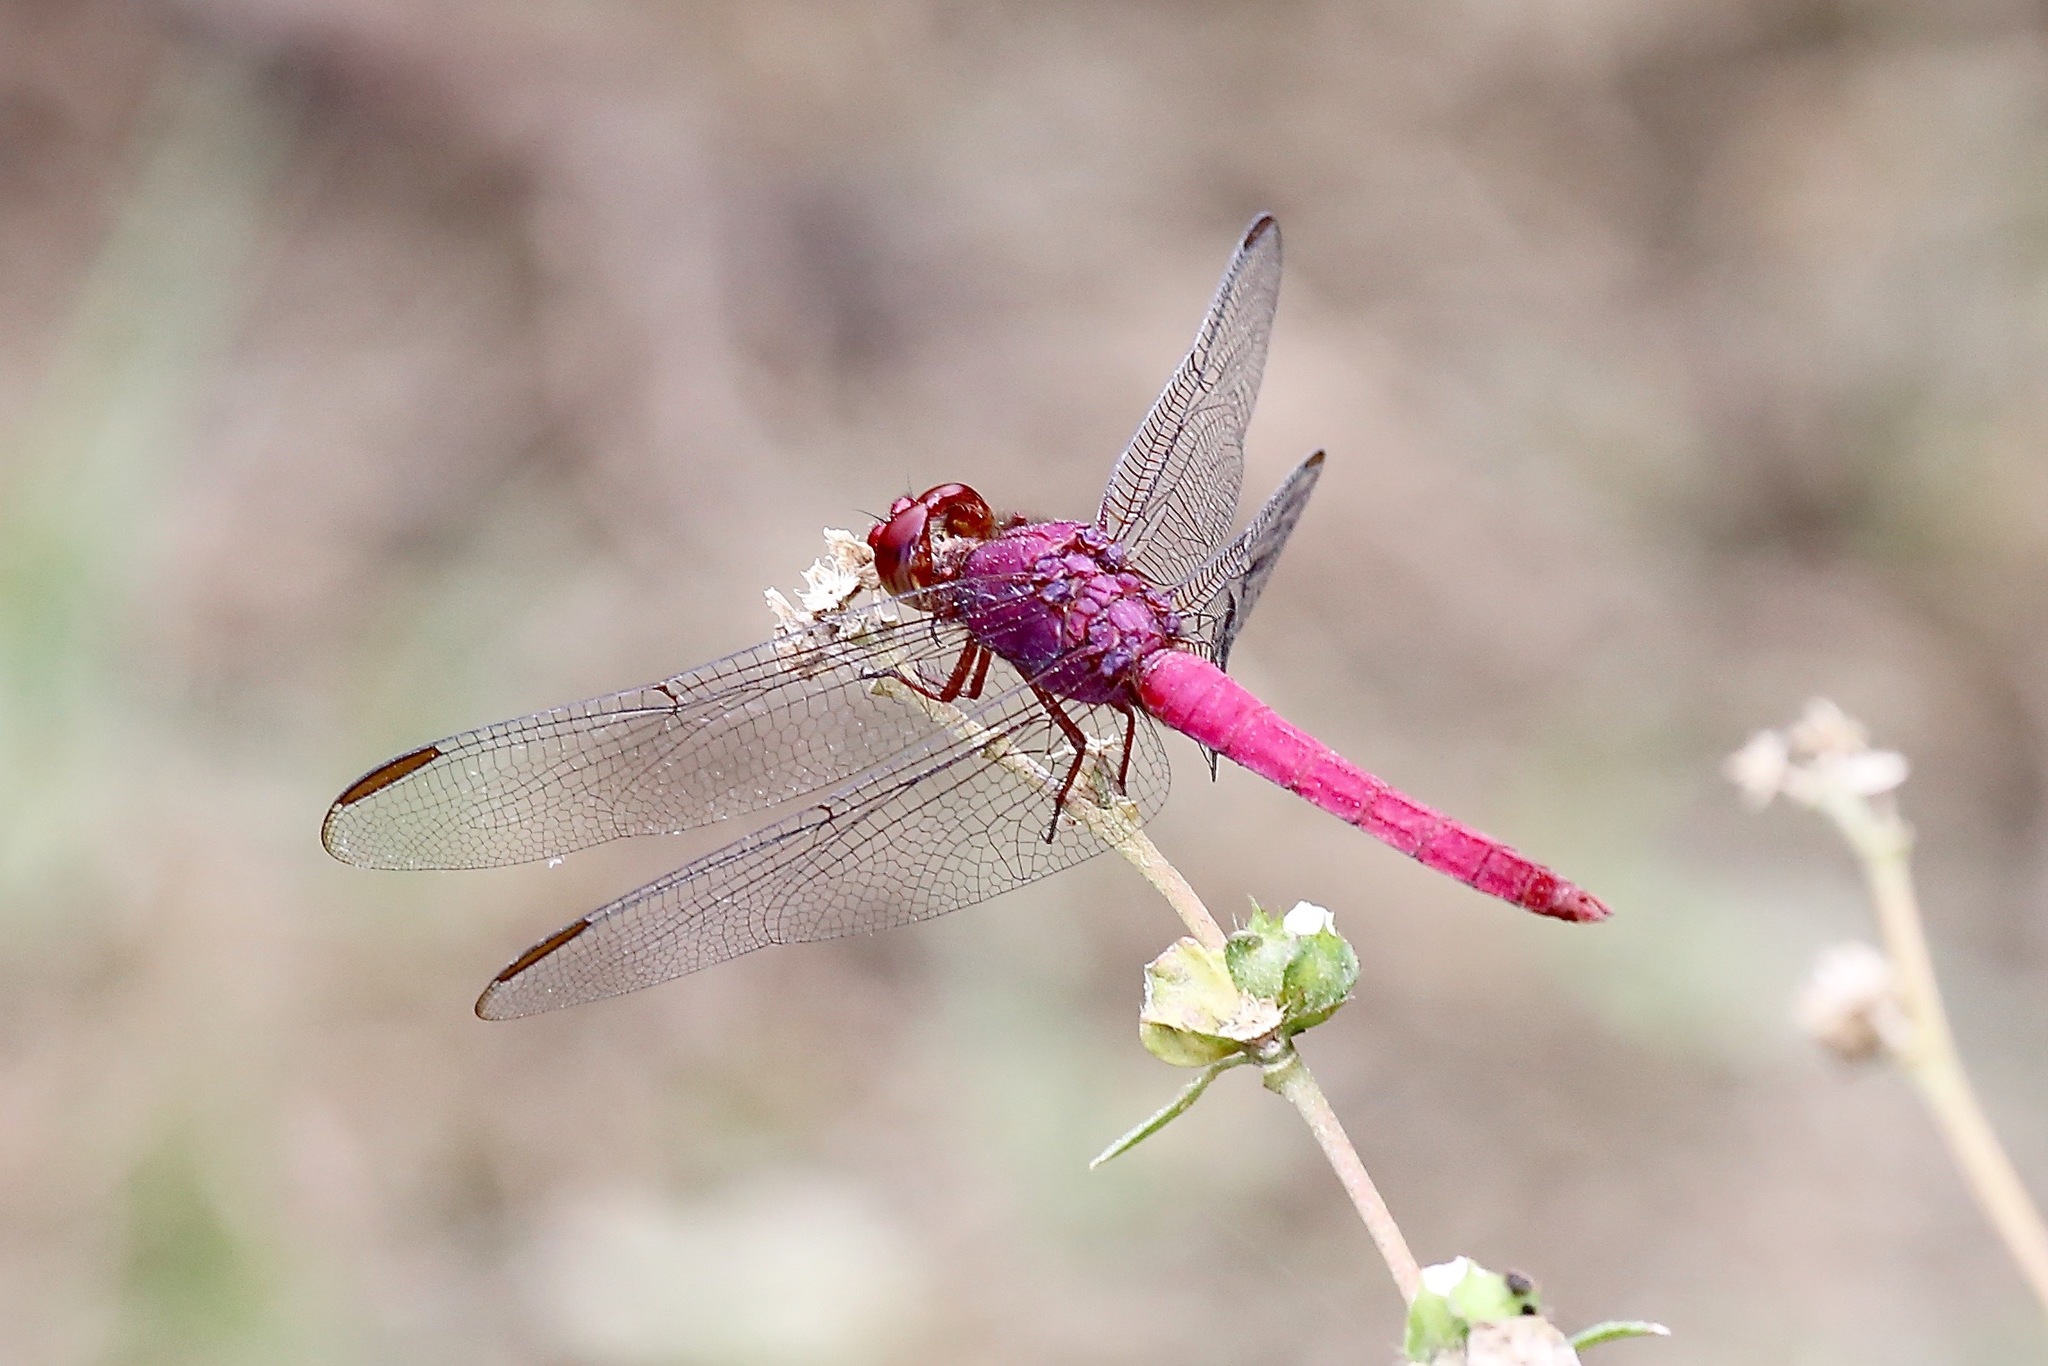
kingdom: Animalia
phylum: Arthropoda
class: Insecta
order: Odonata
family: Libellulidae
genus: Orthemis
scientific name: Orthemis discolor
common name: Carmine skimmer
